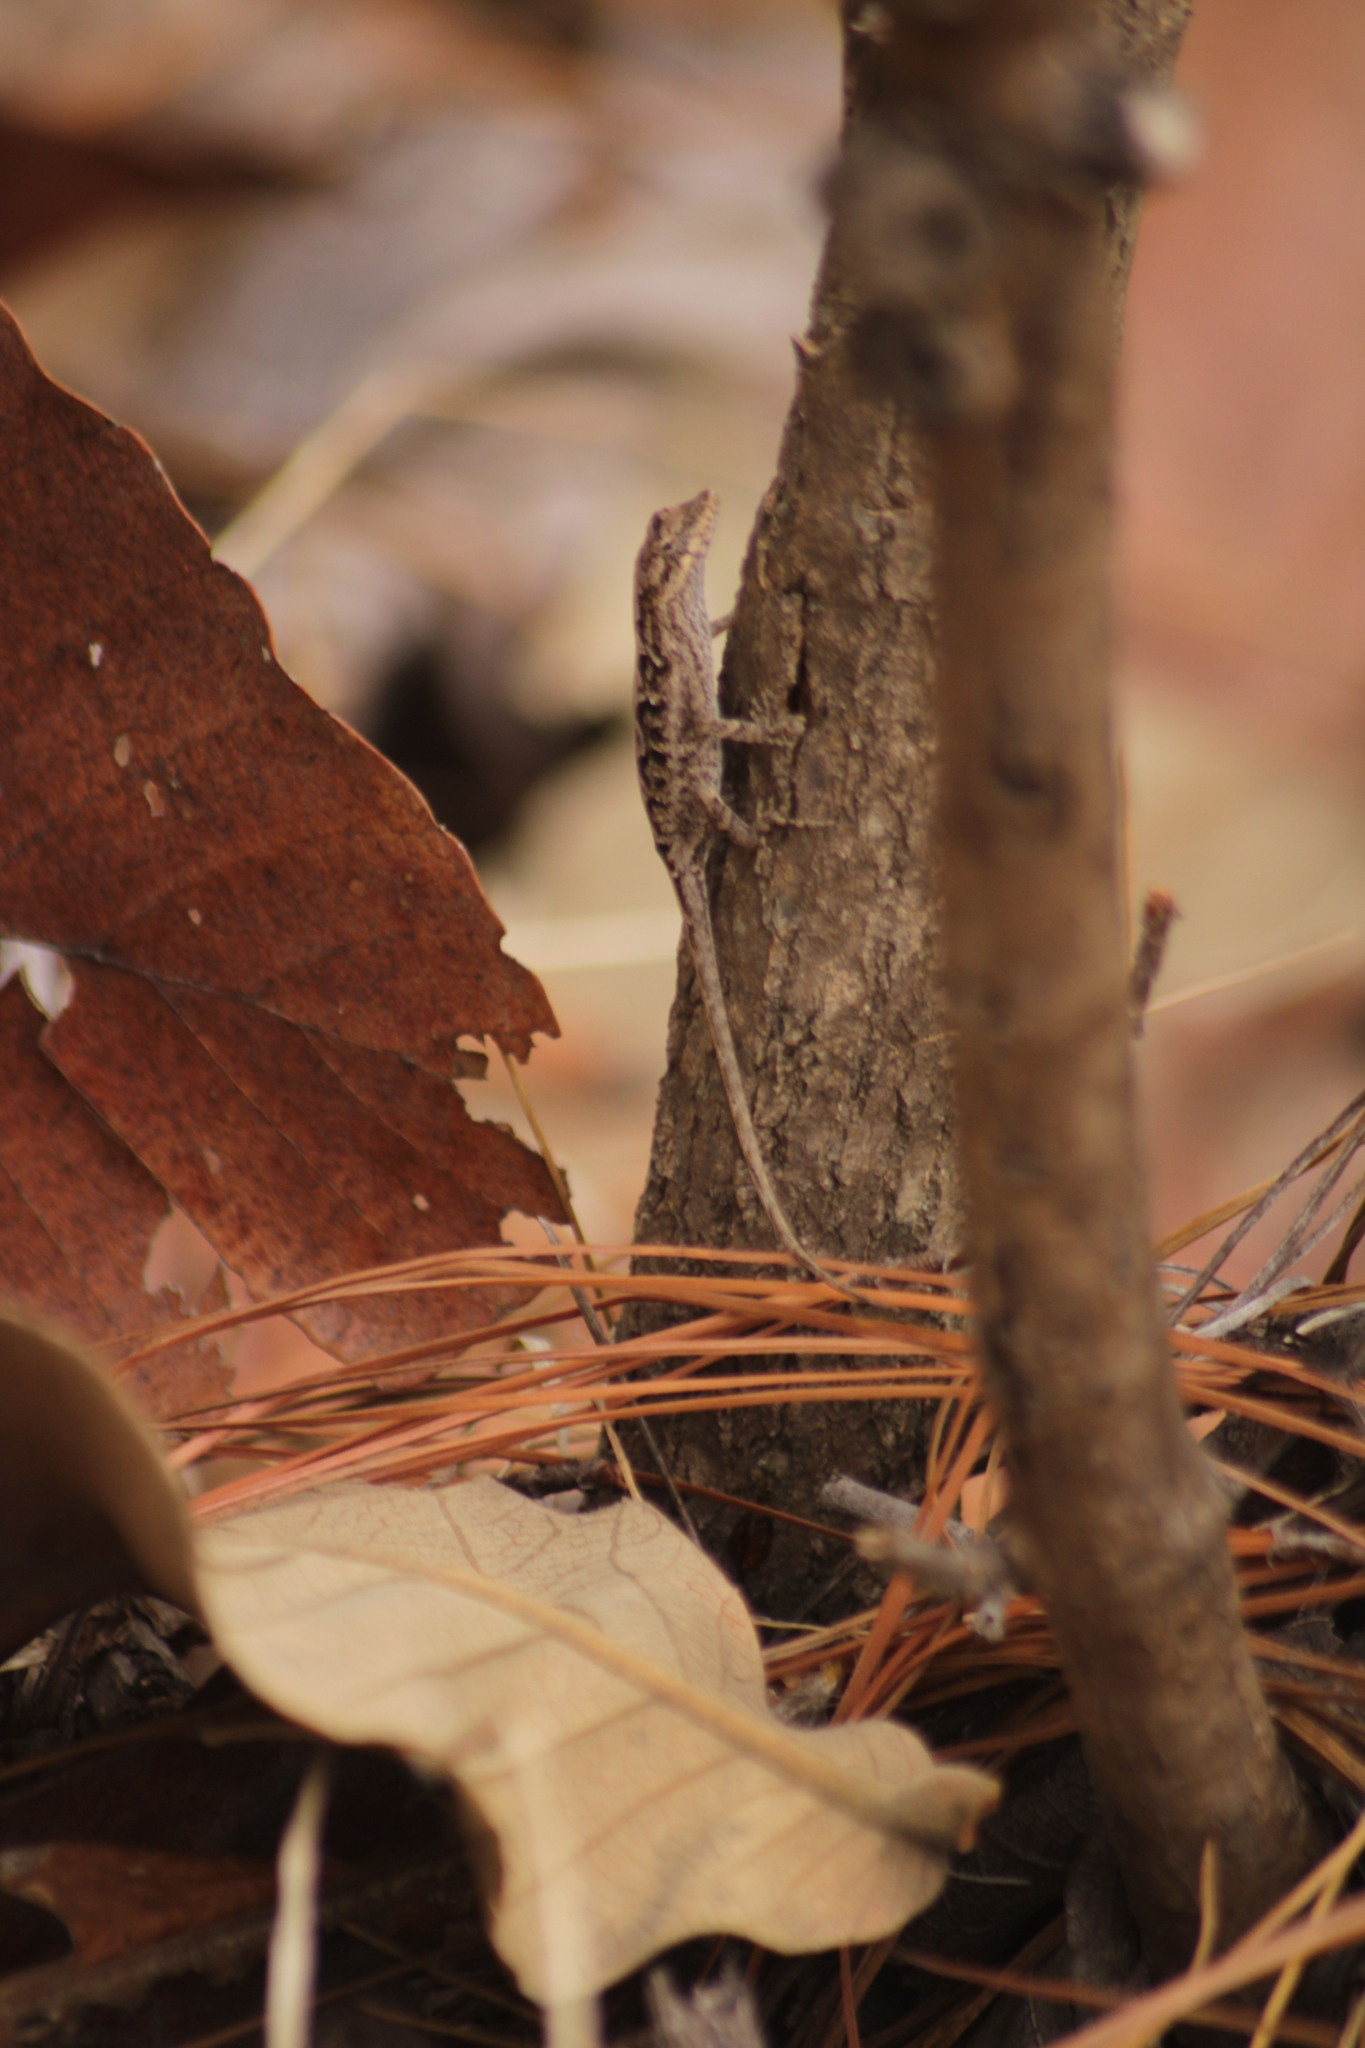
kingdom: Animalia
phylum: Chordata
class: Squamata
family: Dactyloidae
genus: Anolis
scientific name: Anolis nebulosus
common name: Clouded anole
